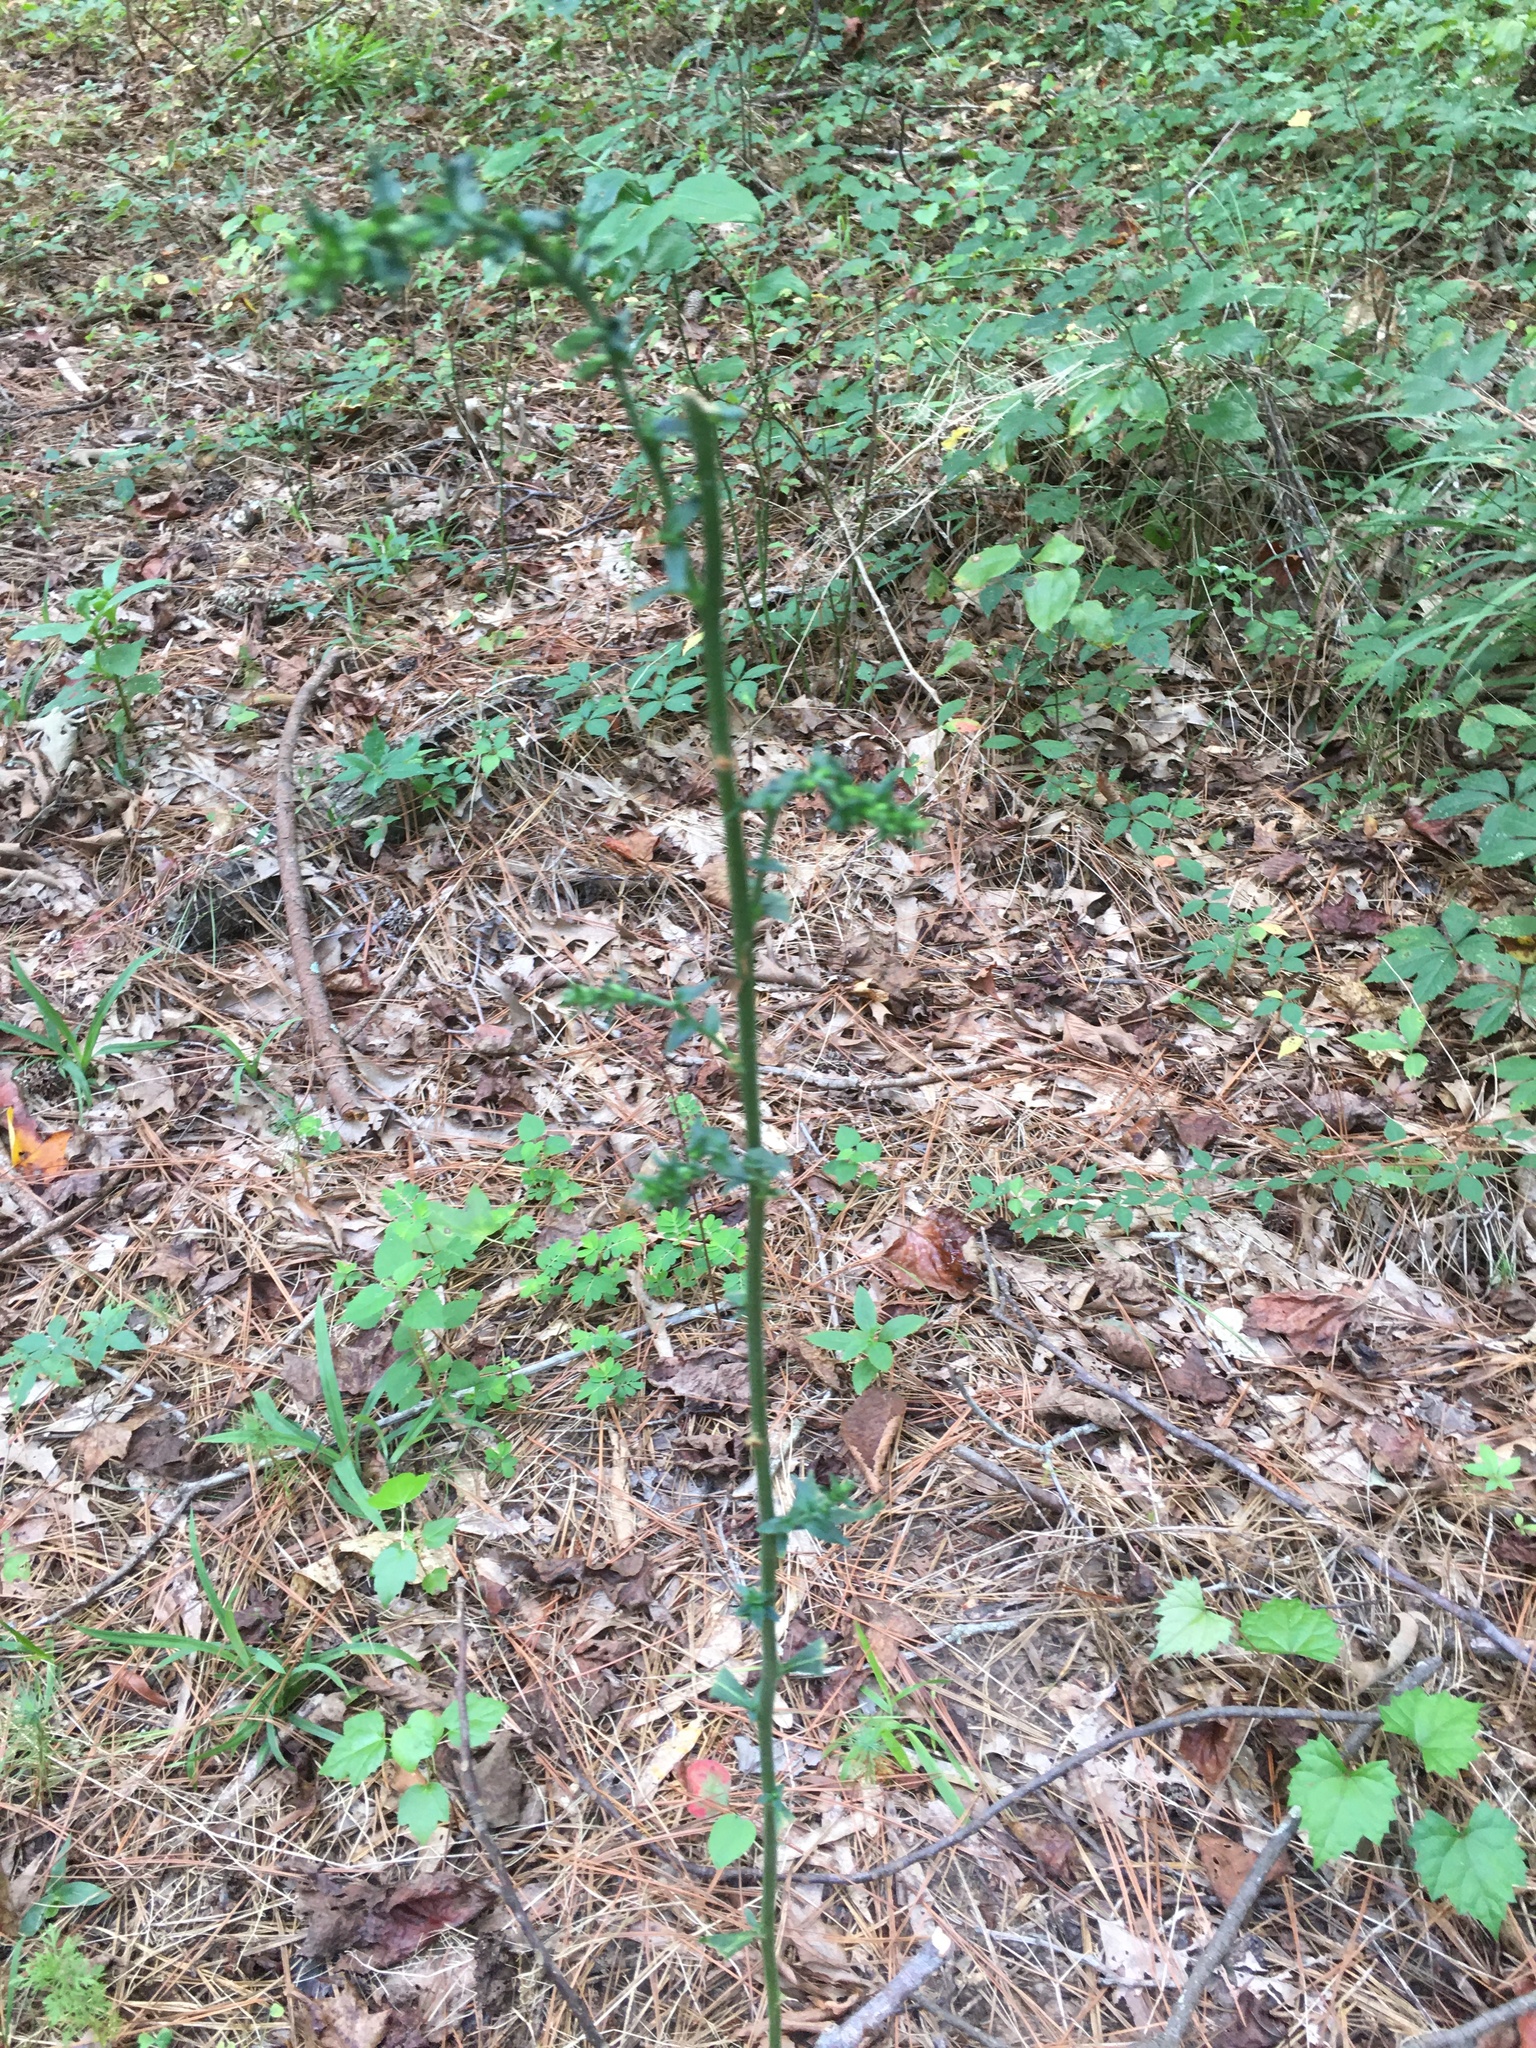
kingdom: Plantae
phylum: Tracheophyta
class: Magnoliopsida
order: Asterales
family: Campanulaceae
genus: Lobelia
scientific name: Lobelia puberula
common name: Purple dewdrop
